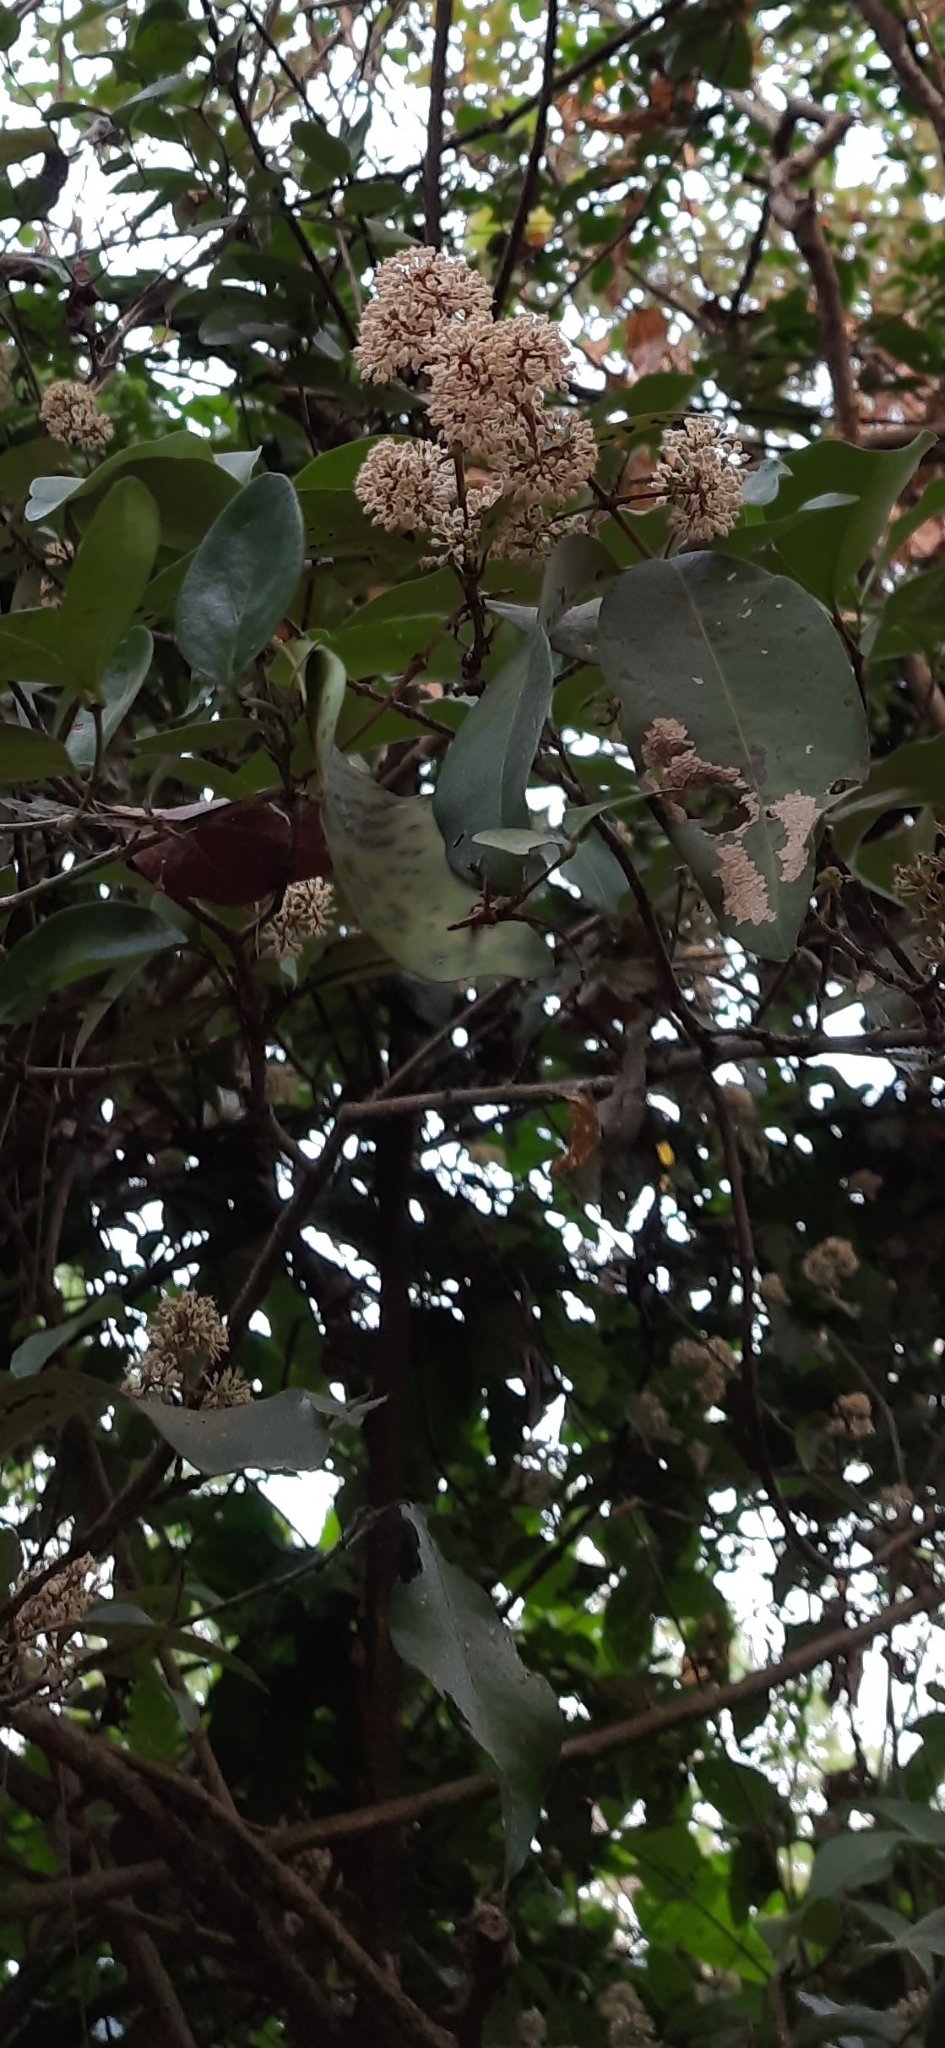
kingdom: Plantae
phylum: Tracheophyta
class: Magnoliopsida
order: Gentianales
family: Rubiaceae
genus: Ixora
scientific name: Ixora brachiata
